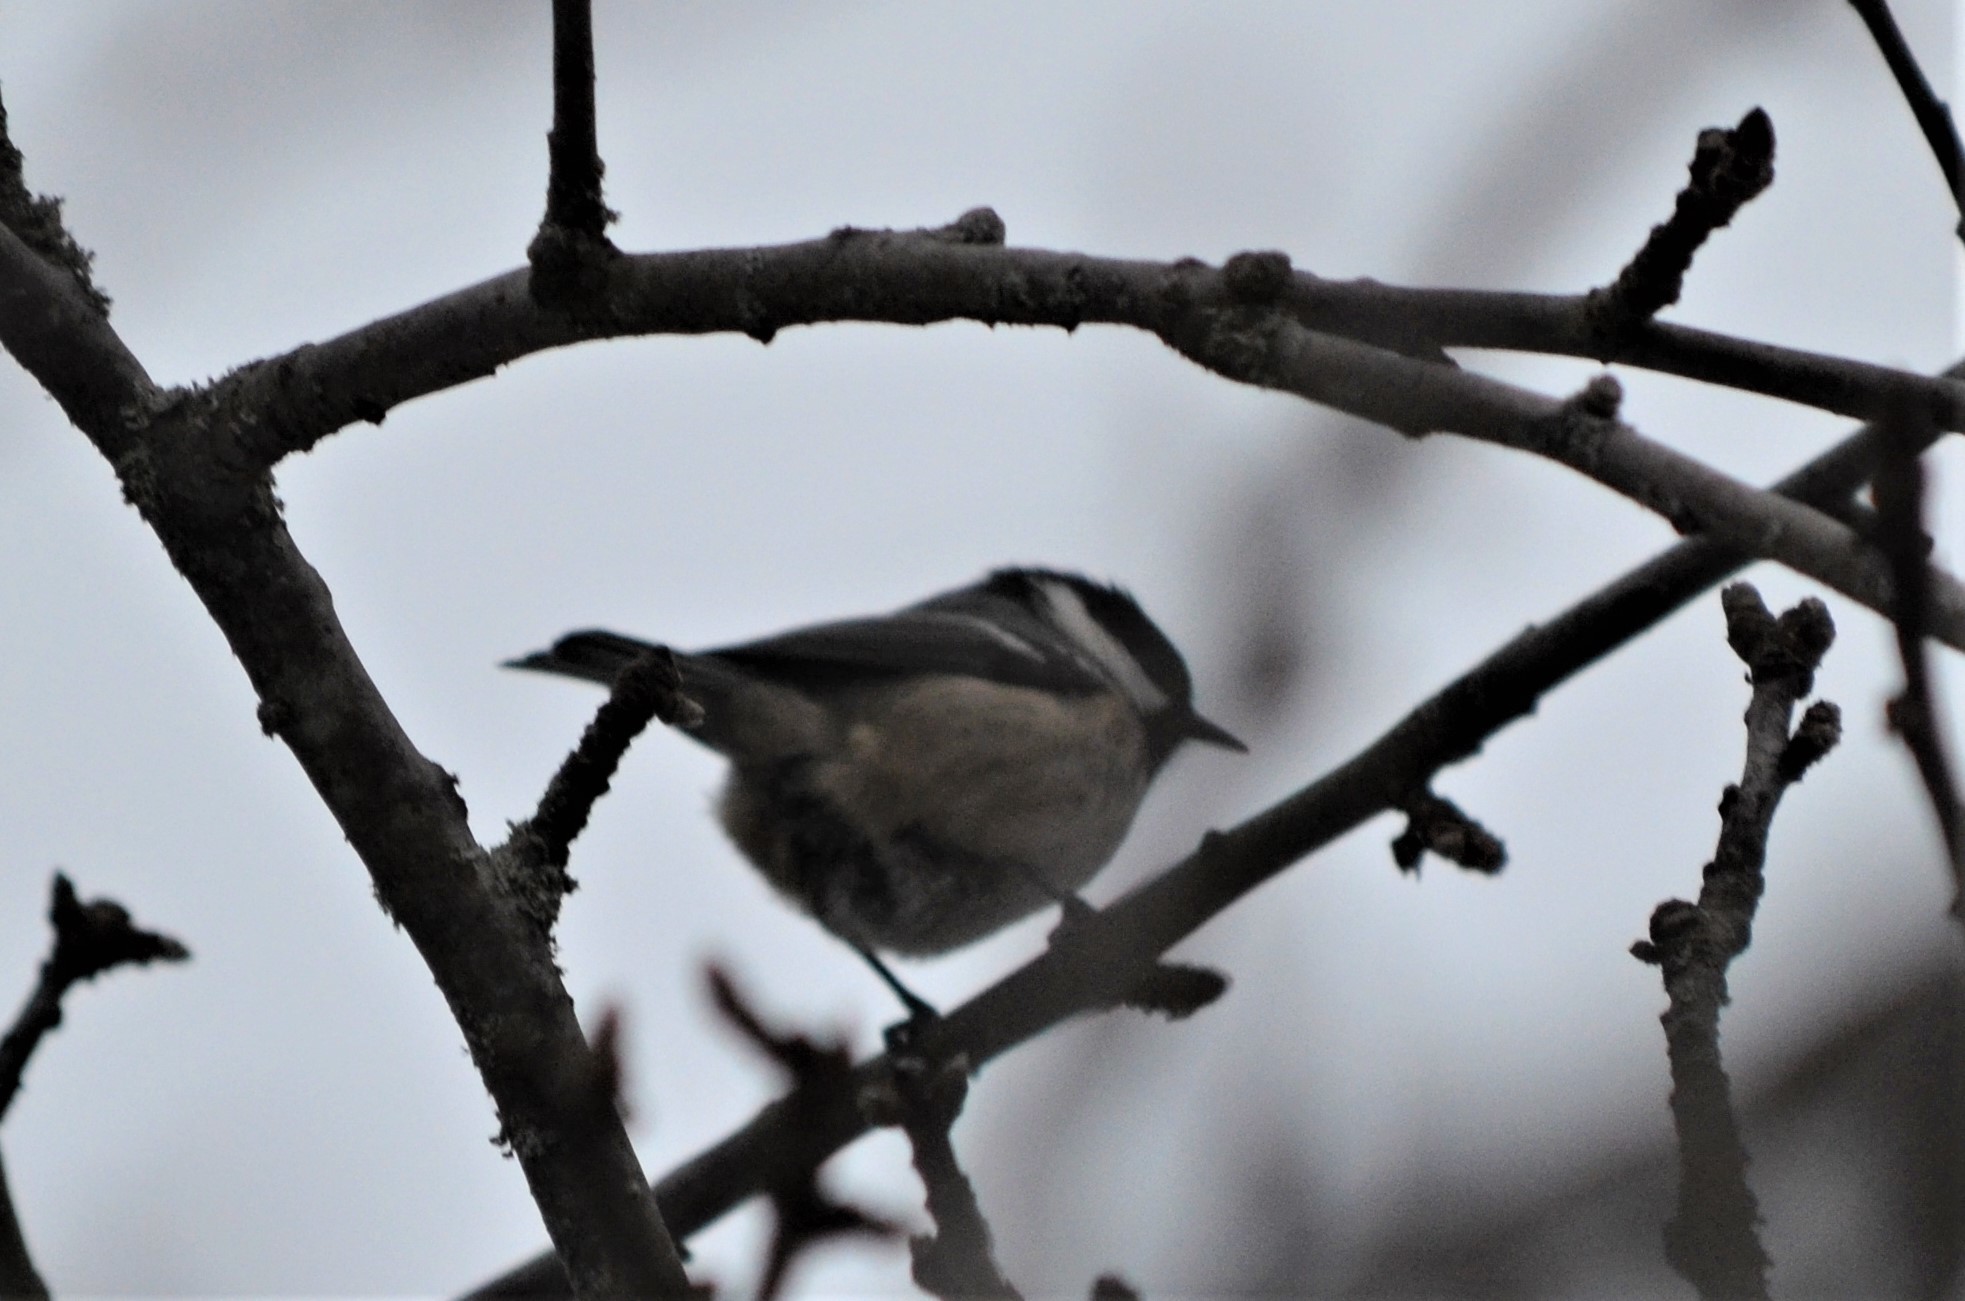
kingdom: Animalia
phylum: Chordata
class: Aves
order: Passeriformes
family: Paridae
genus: Periparus
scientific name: Periparus ater
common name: Coal tit
